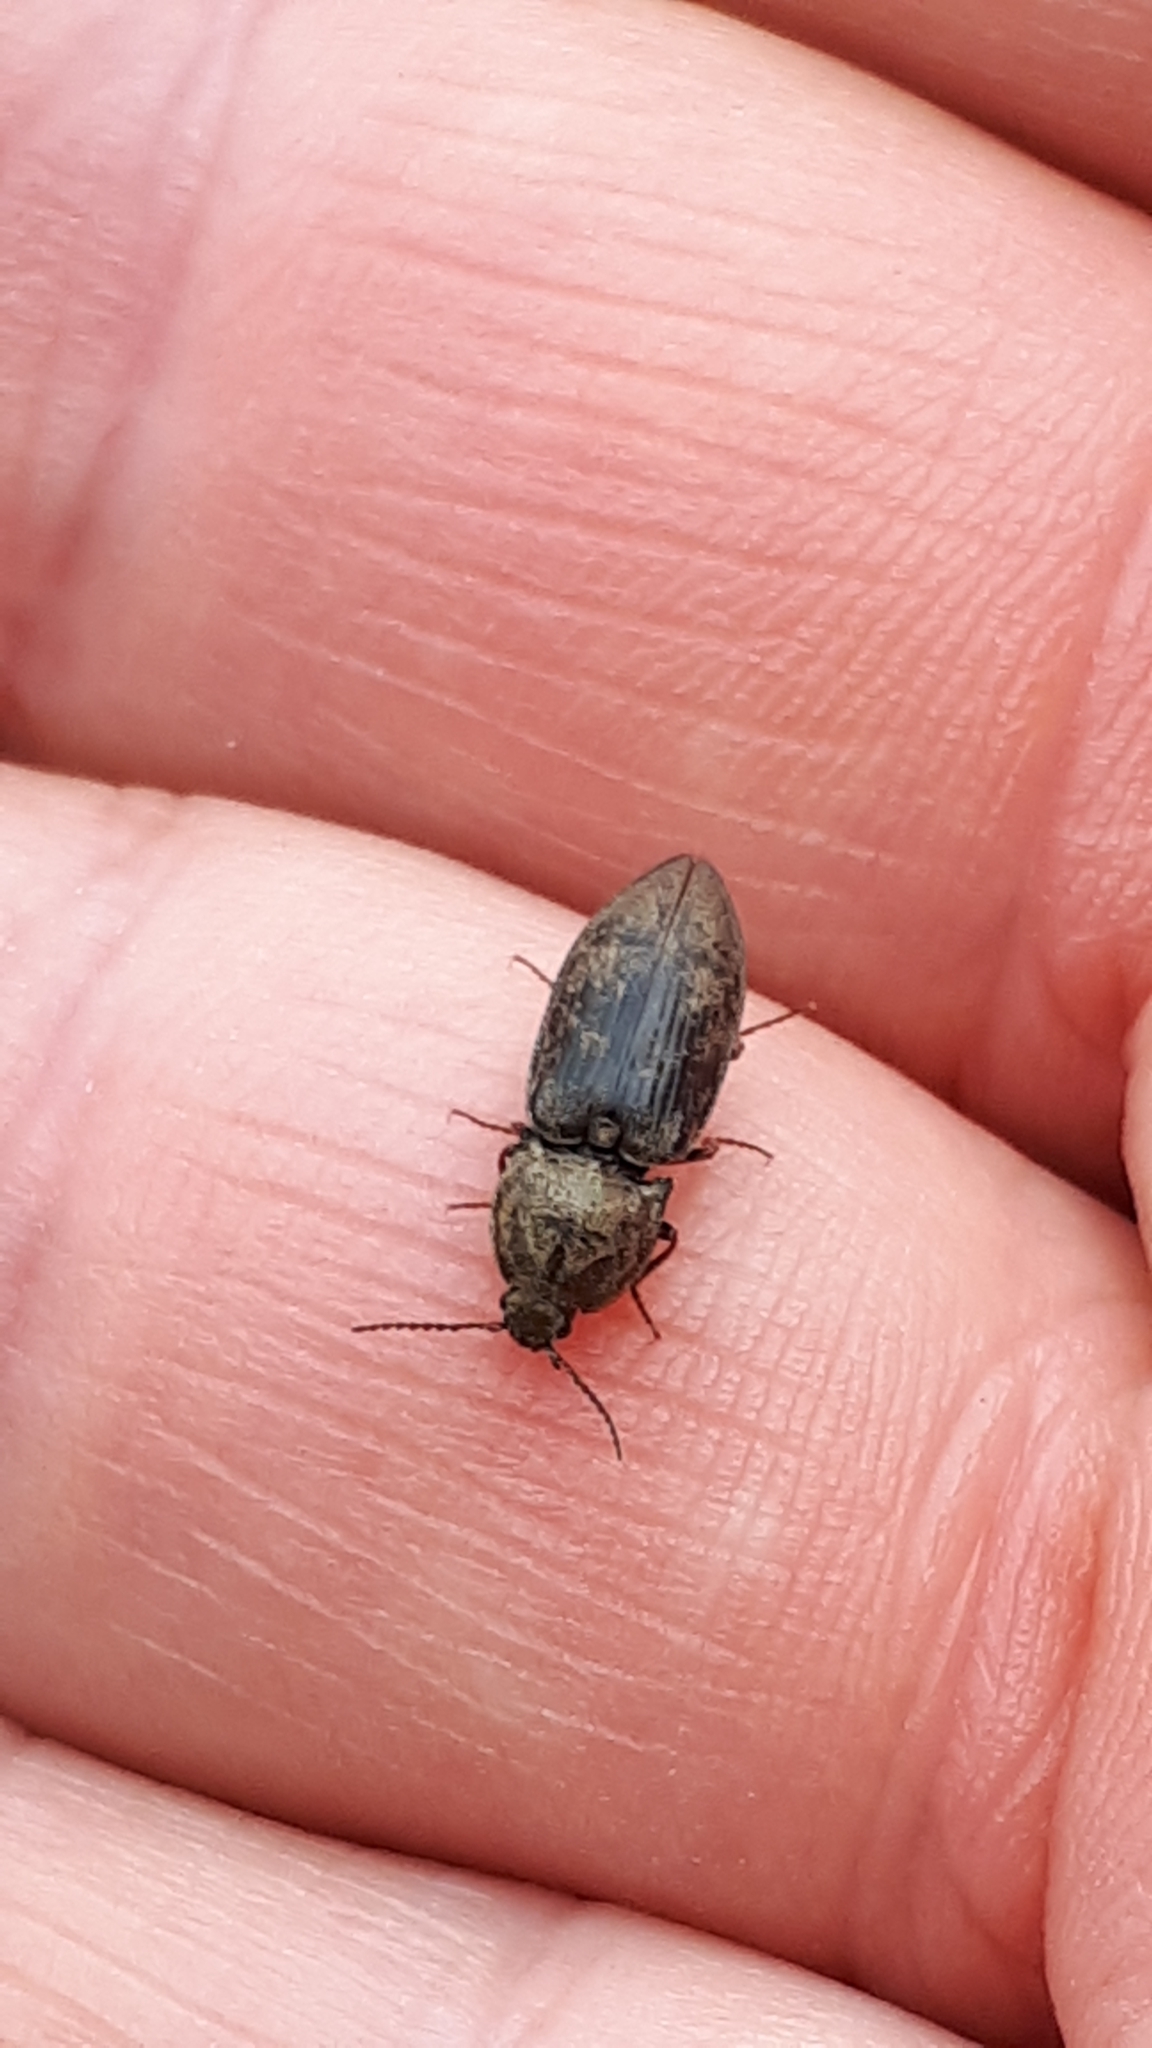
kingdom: Animalia
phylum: Arthropoda
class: Insecta
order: Coleoptera
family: Elateridae
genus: Prosternon
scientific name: Prosternon tessellatum
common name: Chequered click beetle
